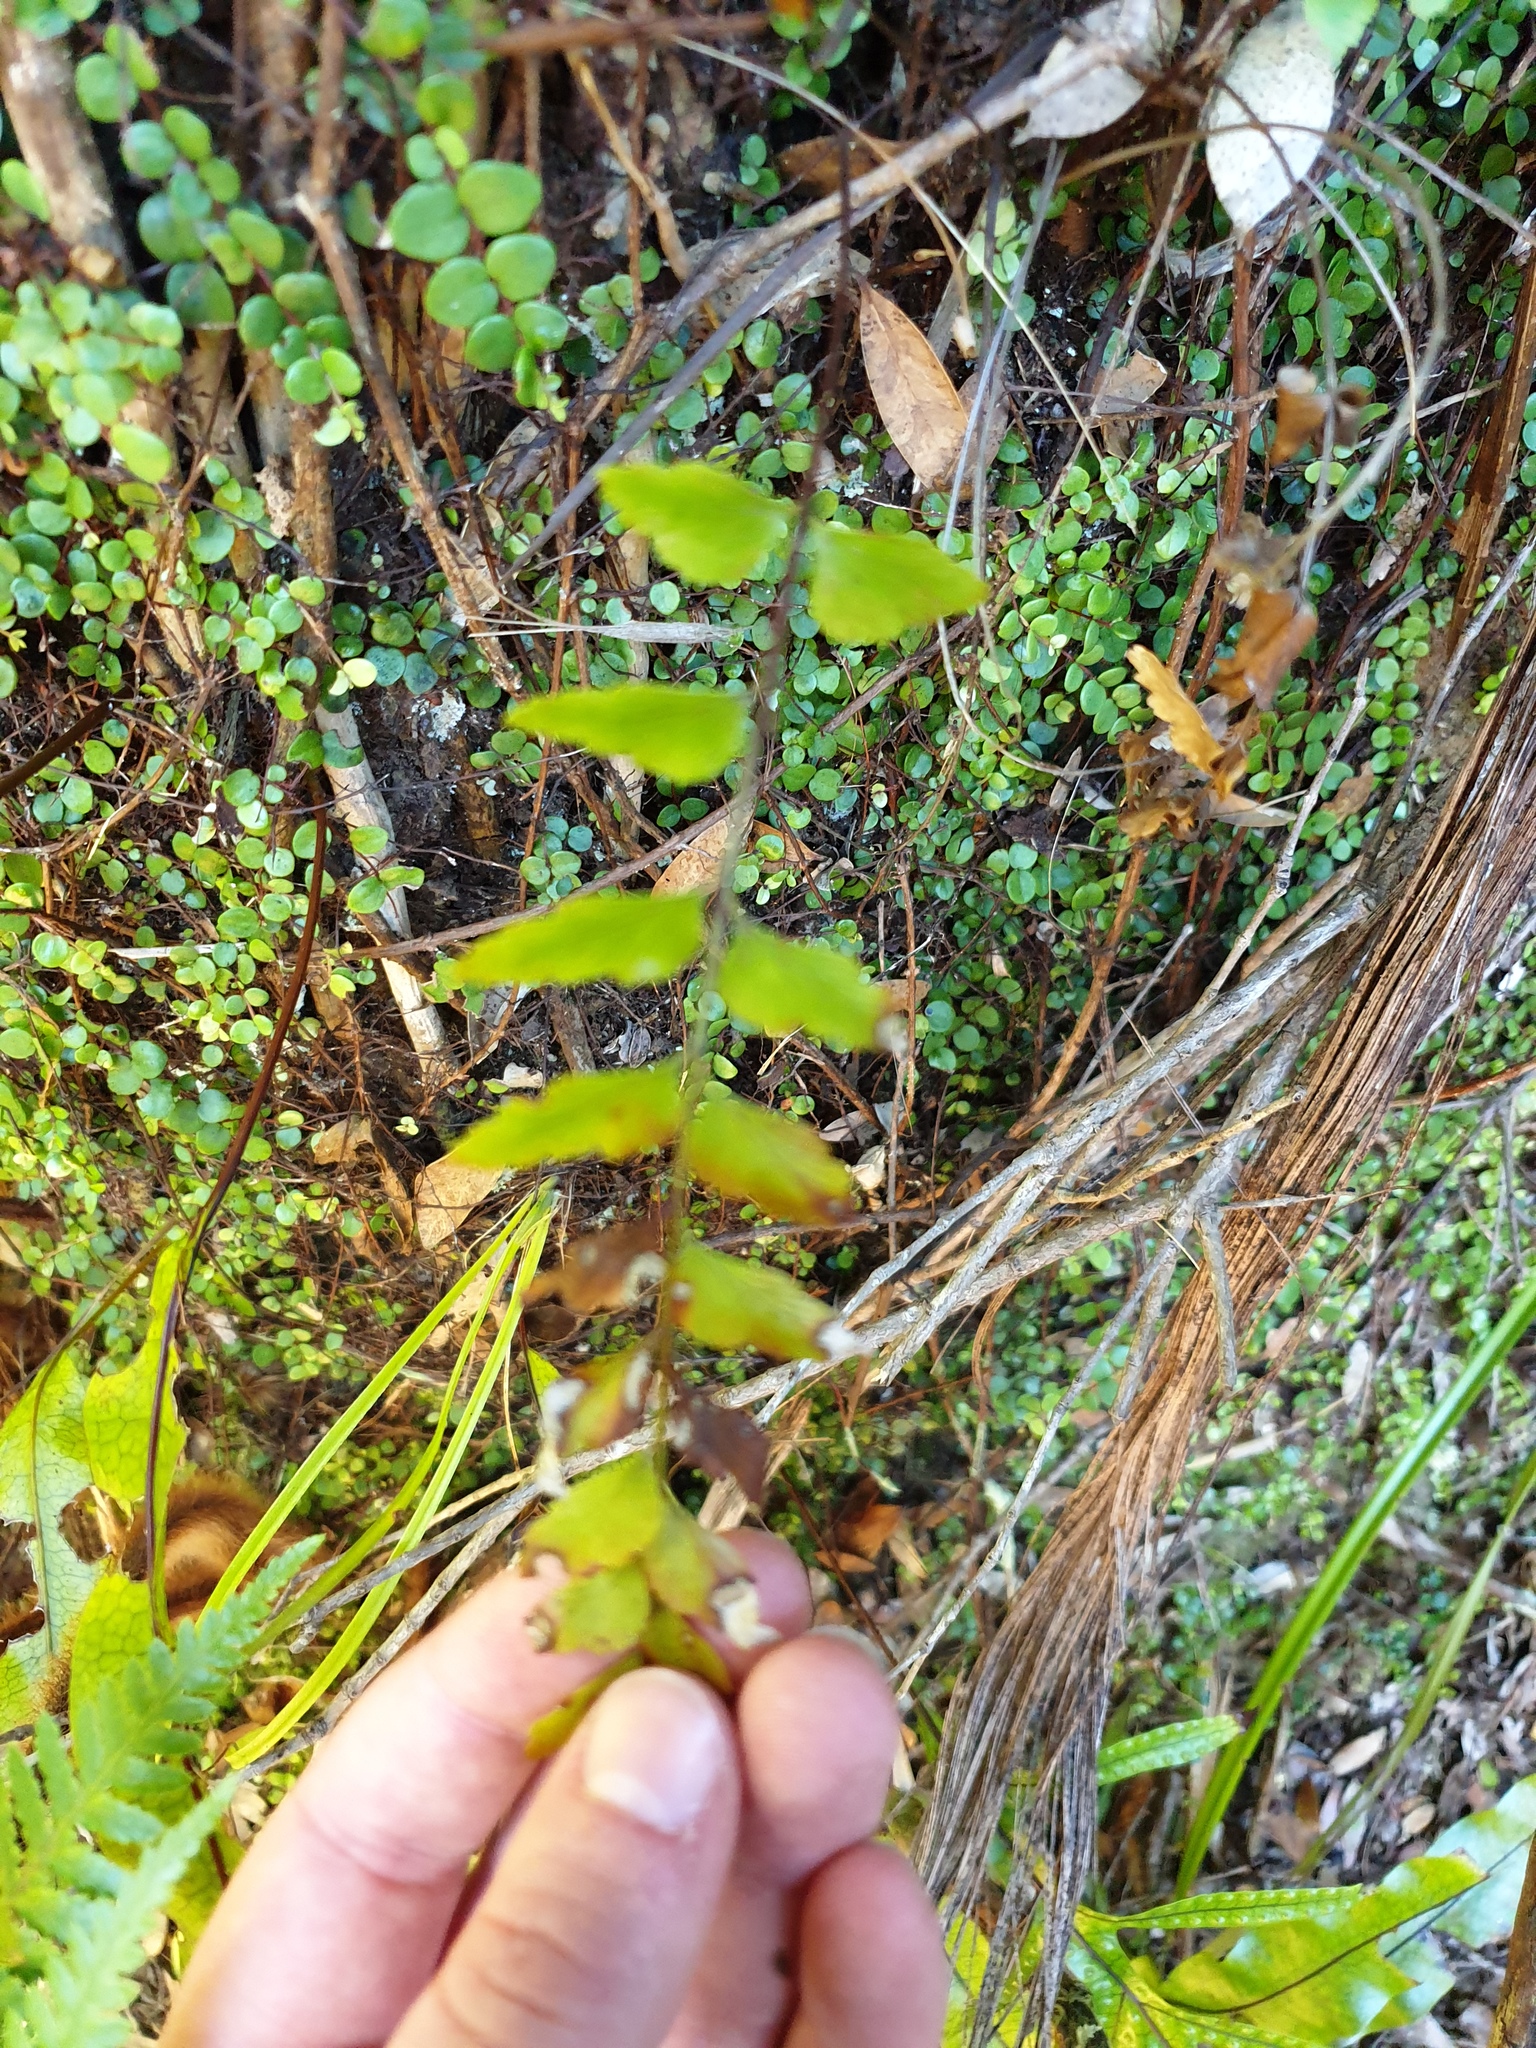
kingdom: Plantae
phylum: Tracheophyta
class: Polypodiopsida
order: Polypodiales
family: Aspleniaceae
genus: Asplenium
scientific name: Asplenium polyodon
